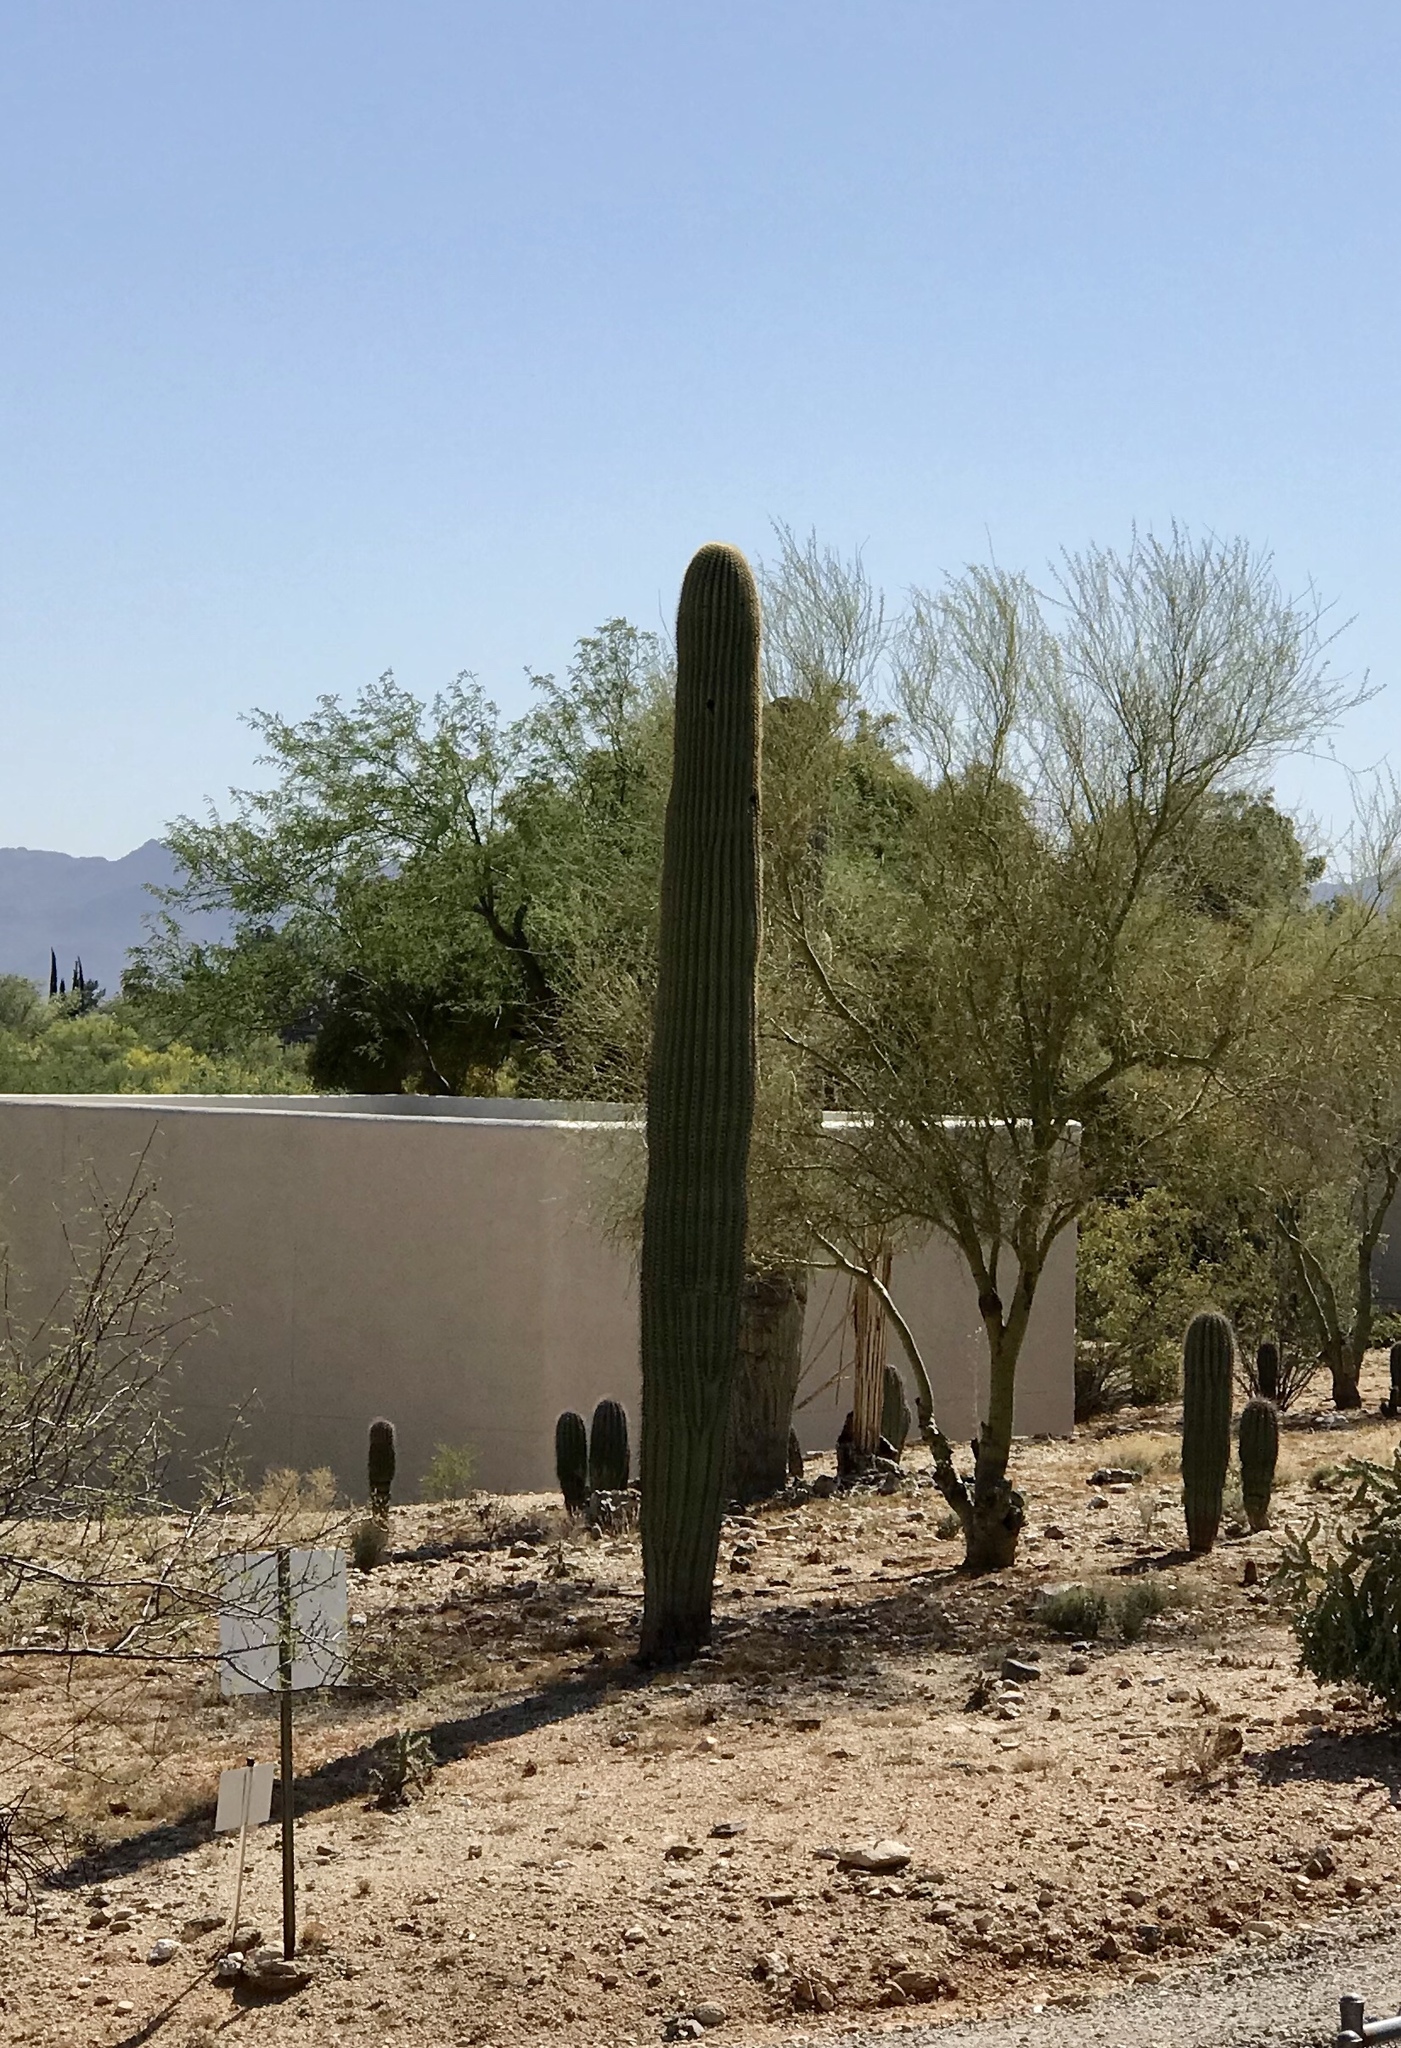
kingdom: Plantae
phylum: Tracheophyta
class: Magnoliopsida
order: Caryophyllales
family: Cactaceae
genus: Carnegiea
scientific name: Carnegiea gigantea
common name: Saguaro
